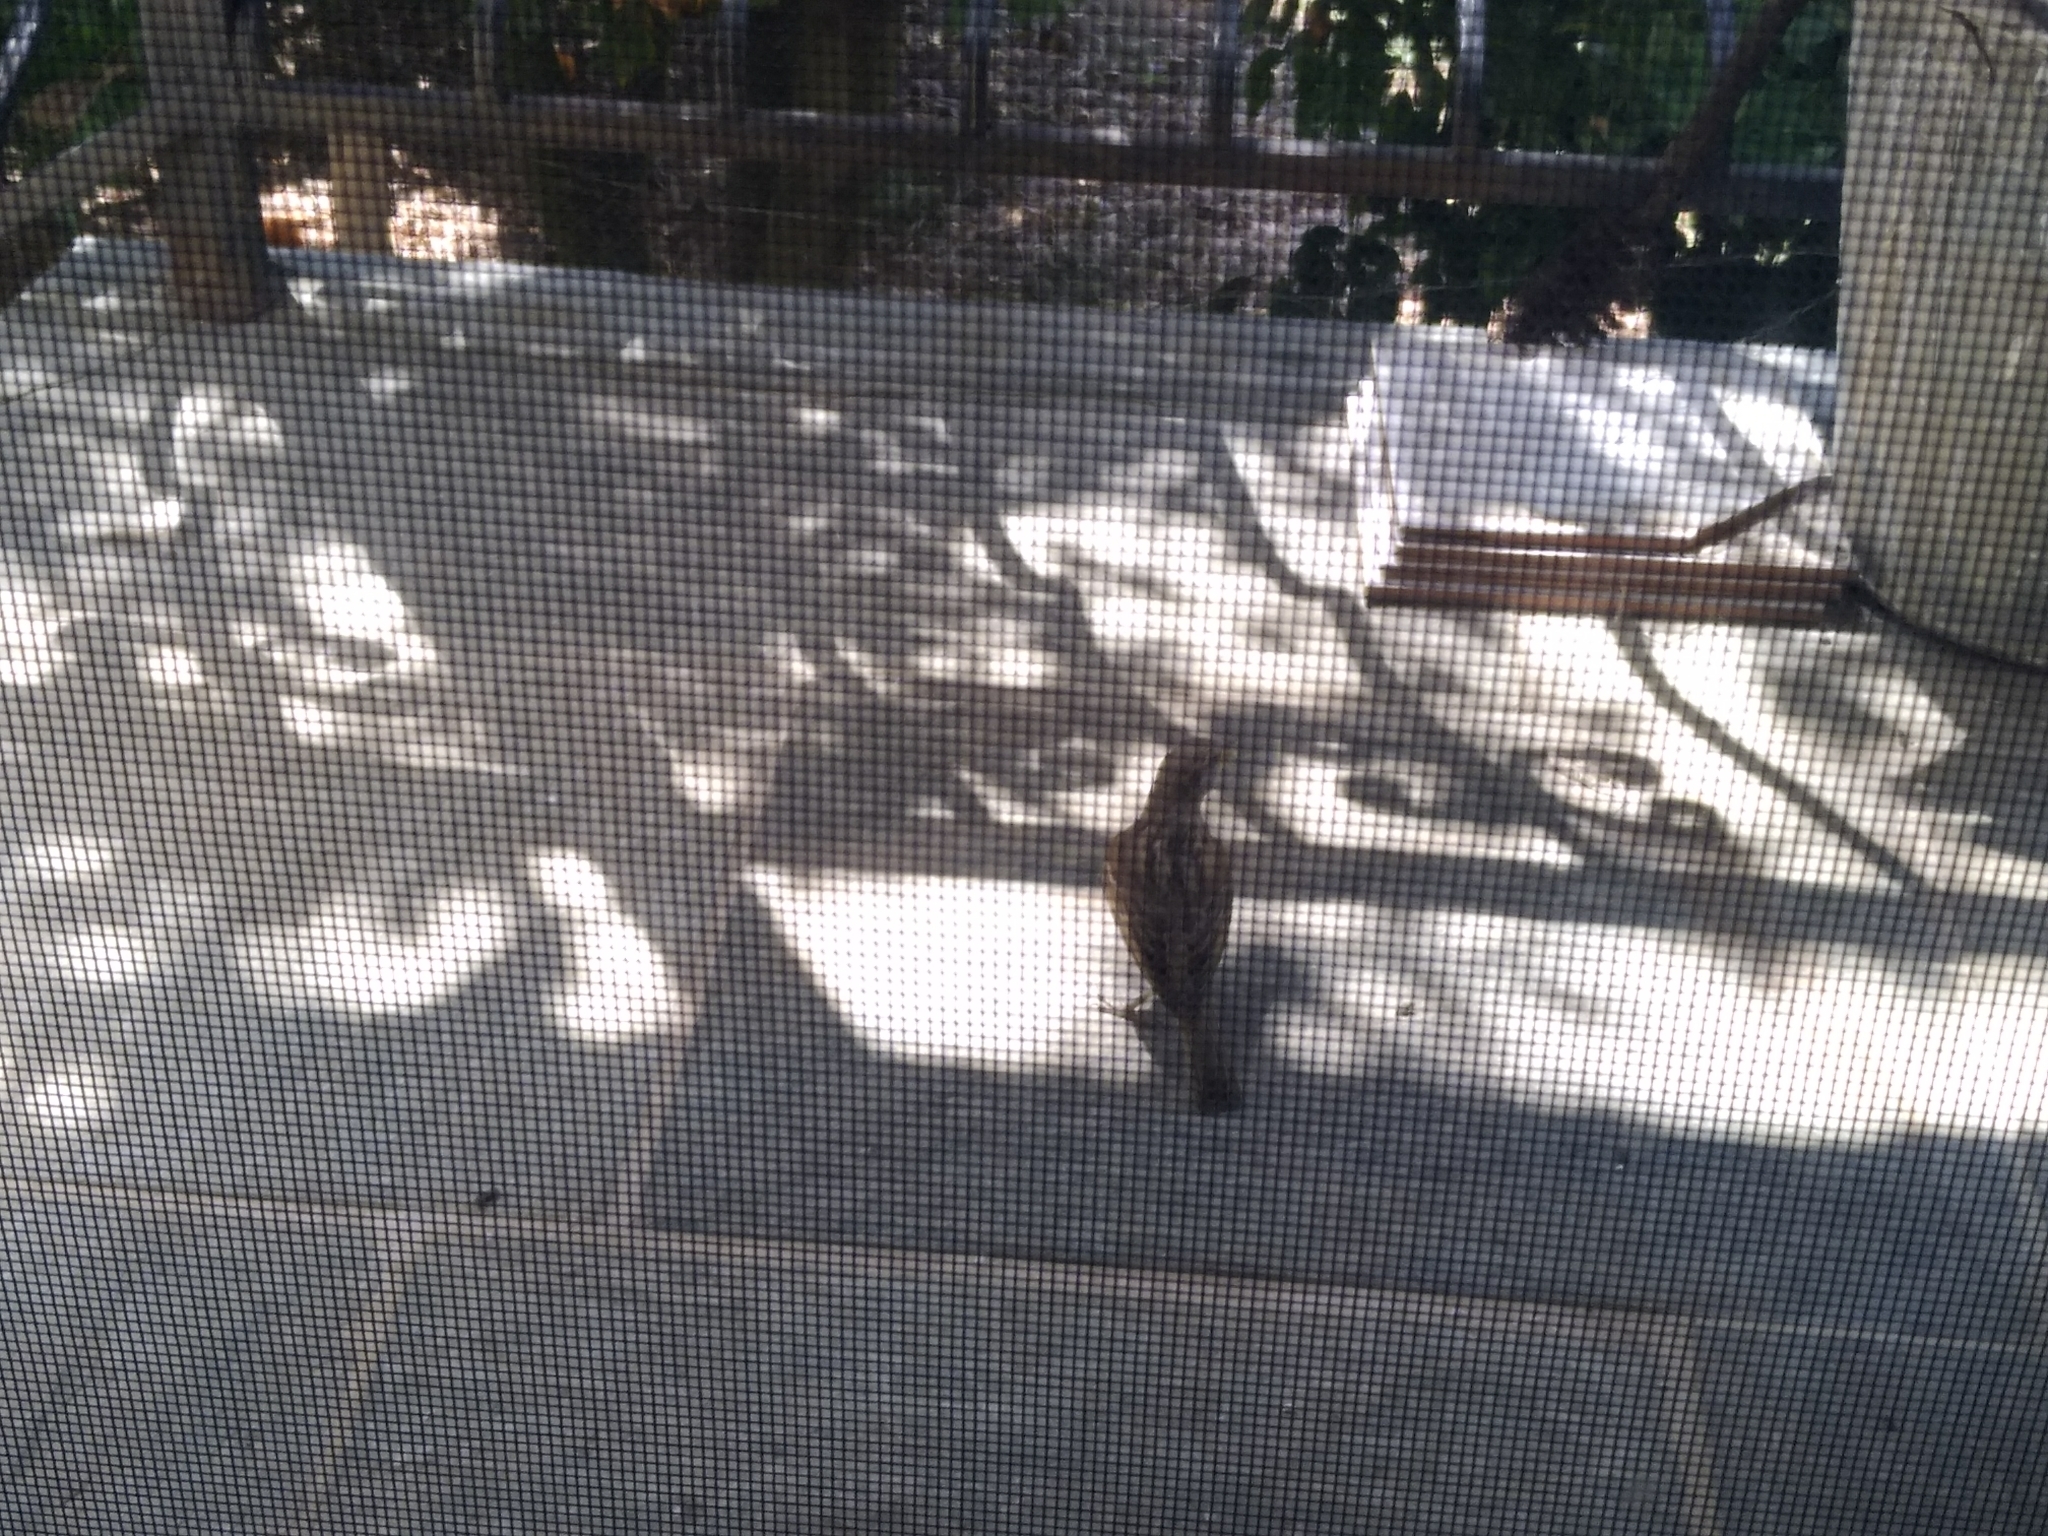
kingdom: Animalia
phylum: Chordata
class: Aves
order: Passeriformes
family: Passeridae
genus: Passer
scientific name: Passer domesticus
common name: House sparrow
